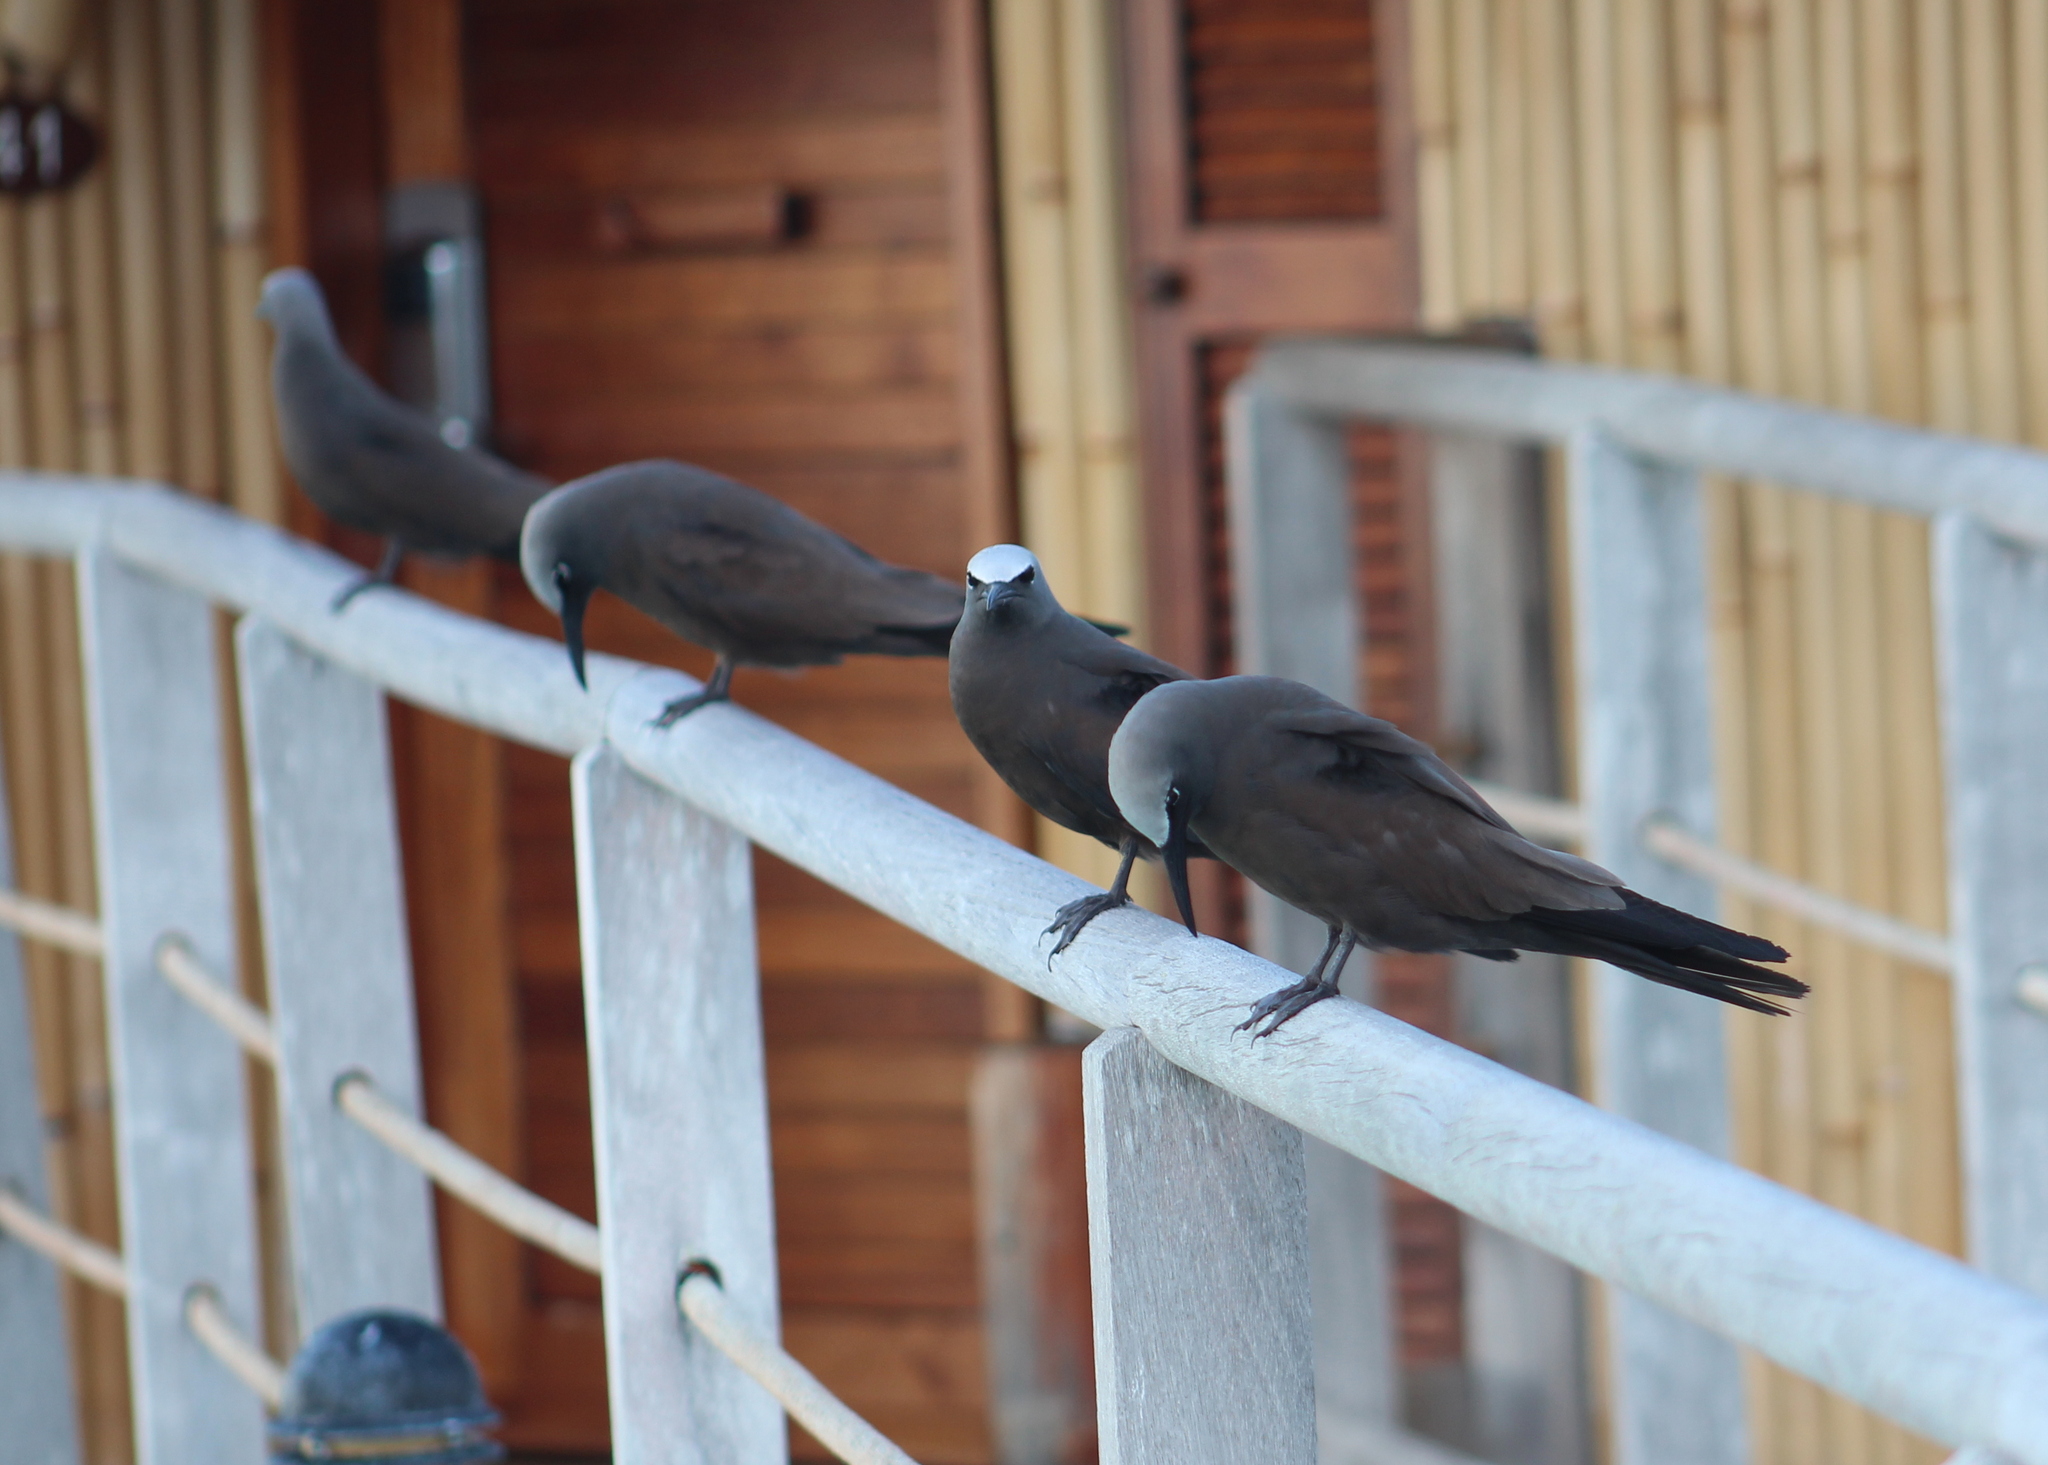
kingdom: Animalia
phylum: Chordata
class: Aves
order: Charadriiformes
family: Laridae
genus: Anous
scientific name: Anous stolidus
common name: Brown noddy
